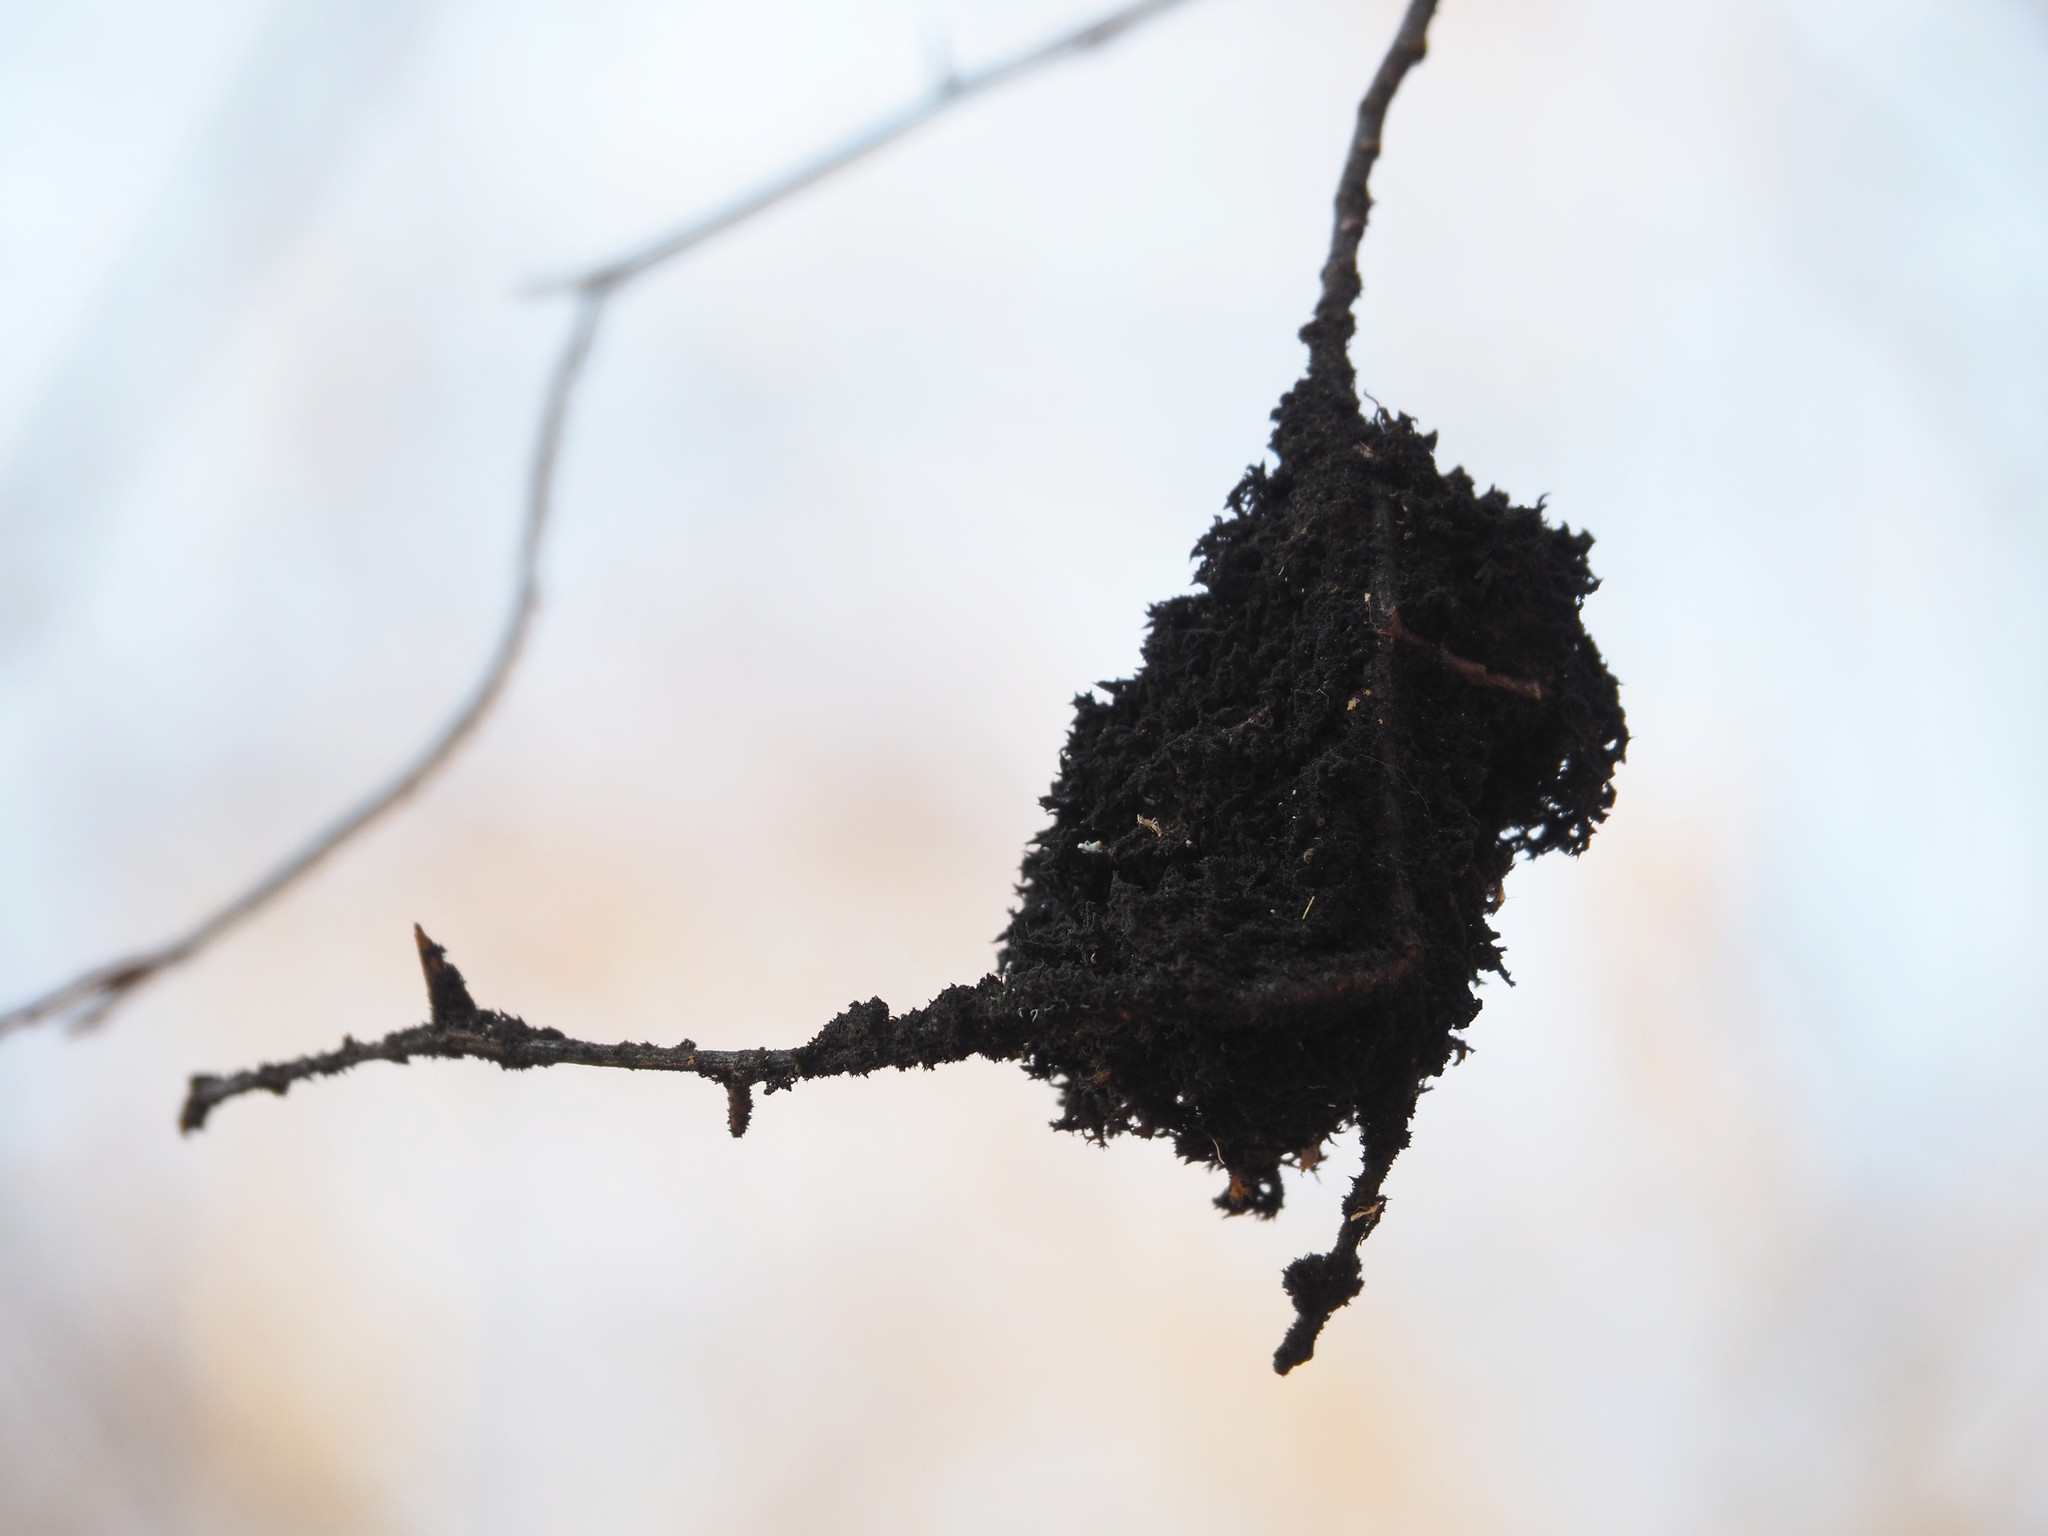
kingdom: Fungi
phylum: Ascomycota
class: Dothideomycetes
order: Capnodiales
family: Capnodiaceae
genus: Scorias
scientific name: Scorias spongiosa
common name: Black sooty mold
